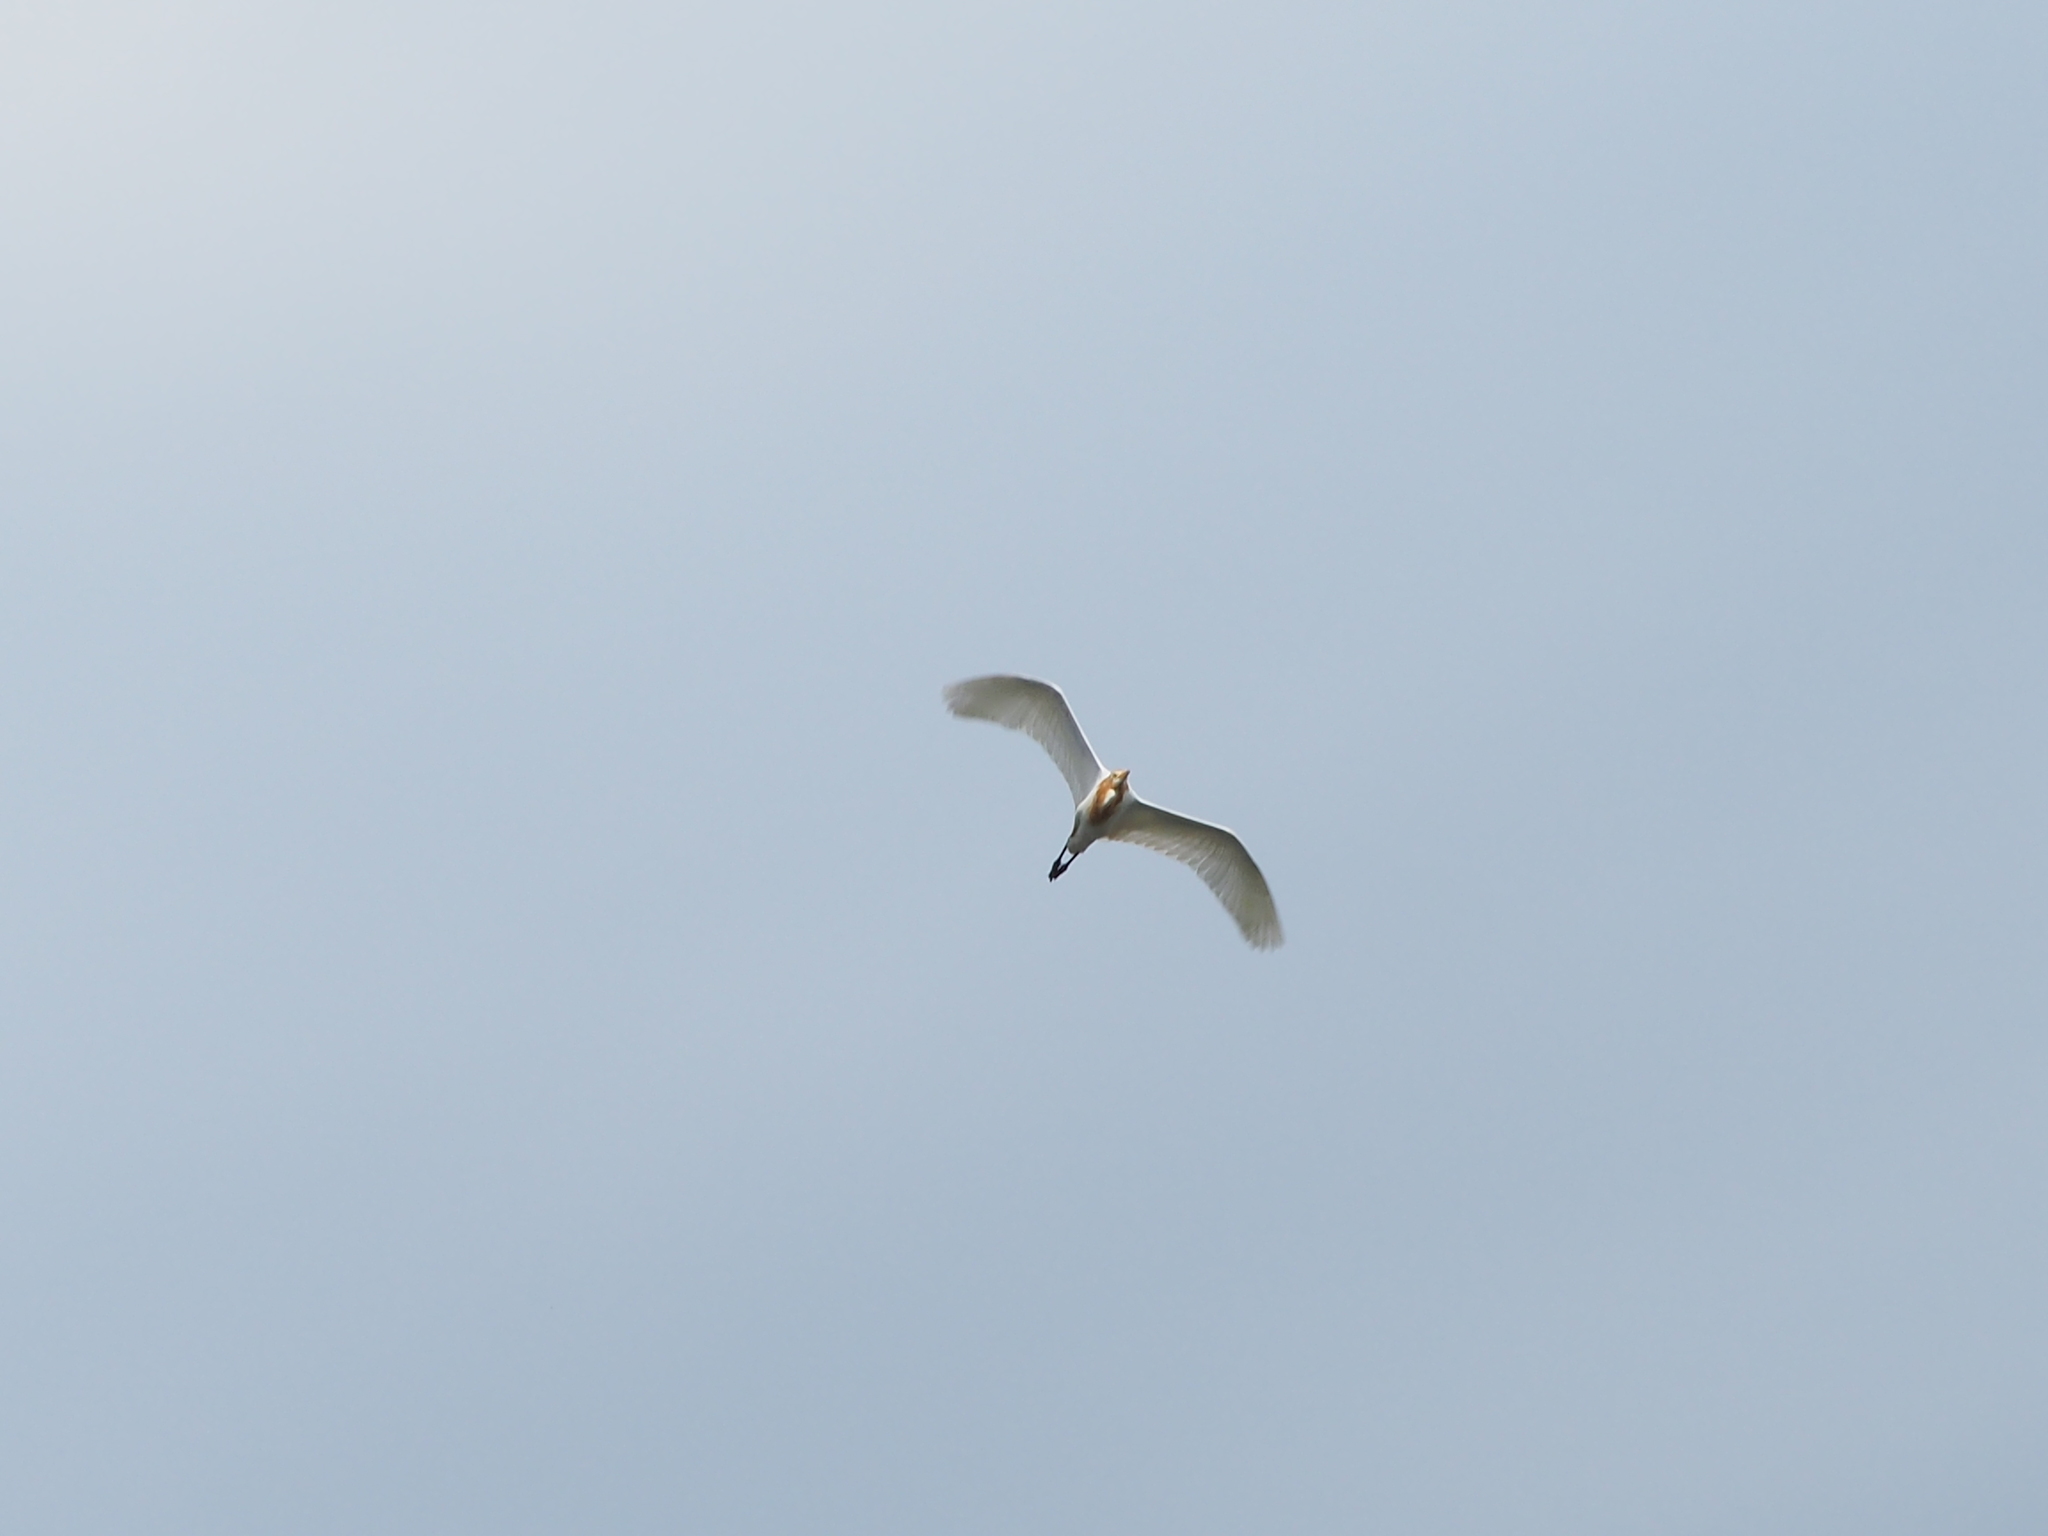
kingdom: Animalia
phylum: Chordata
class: Aves
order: Pelecaniformes
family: Ardeidae
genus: Bubulcus
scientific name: Bubulcus coromandus
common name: Eastern cattle egret
